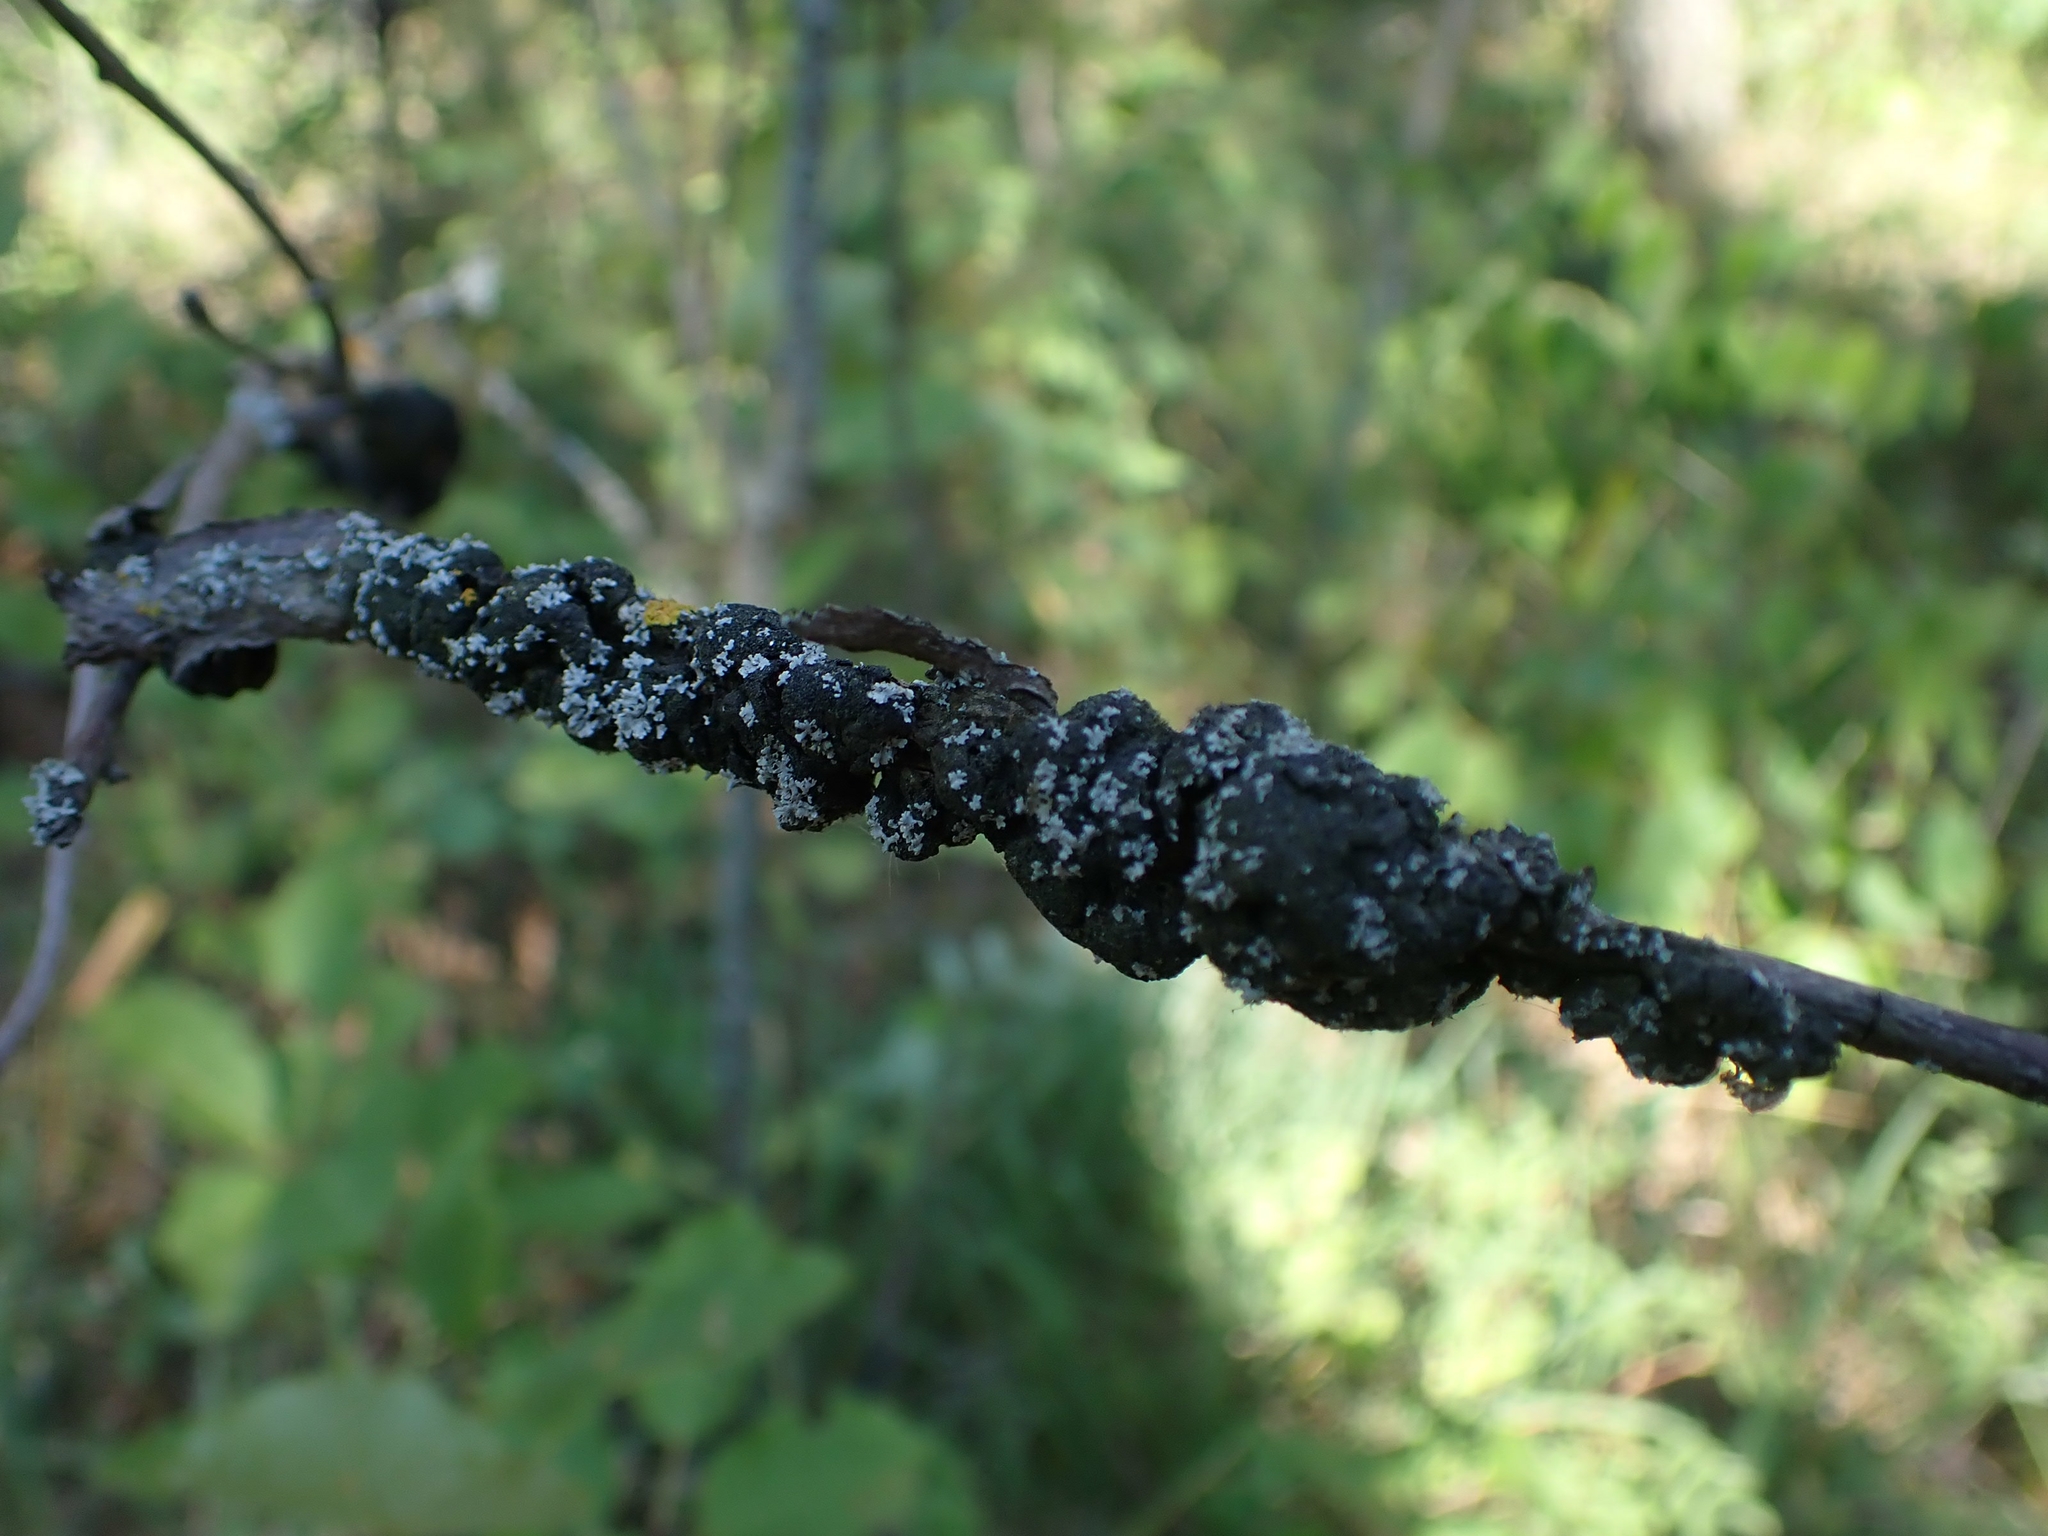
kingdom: Fungi
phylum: Ascomycota
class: Dothideomycetes
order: Venturiales
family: Venturiaceae
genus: Apiosporina
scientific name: Apiosporina morbosa
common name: Black knot
